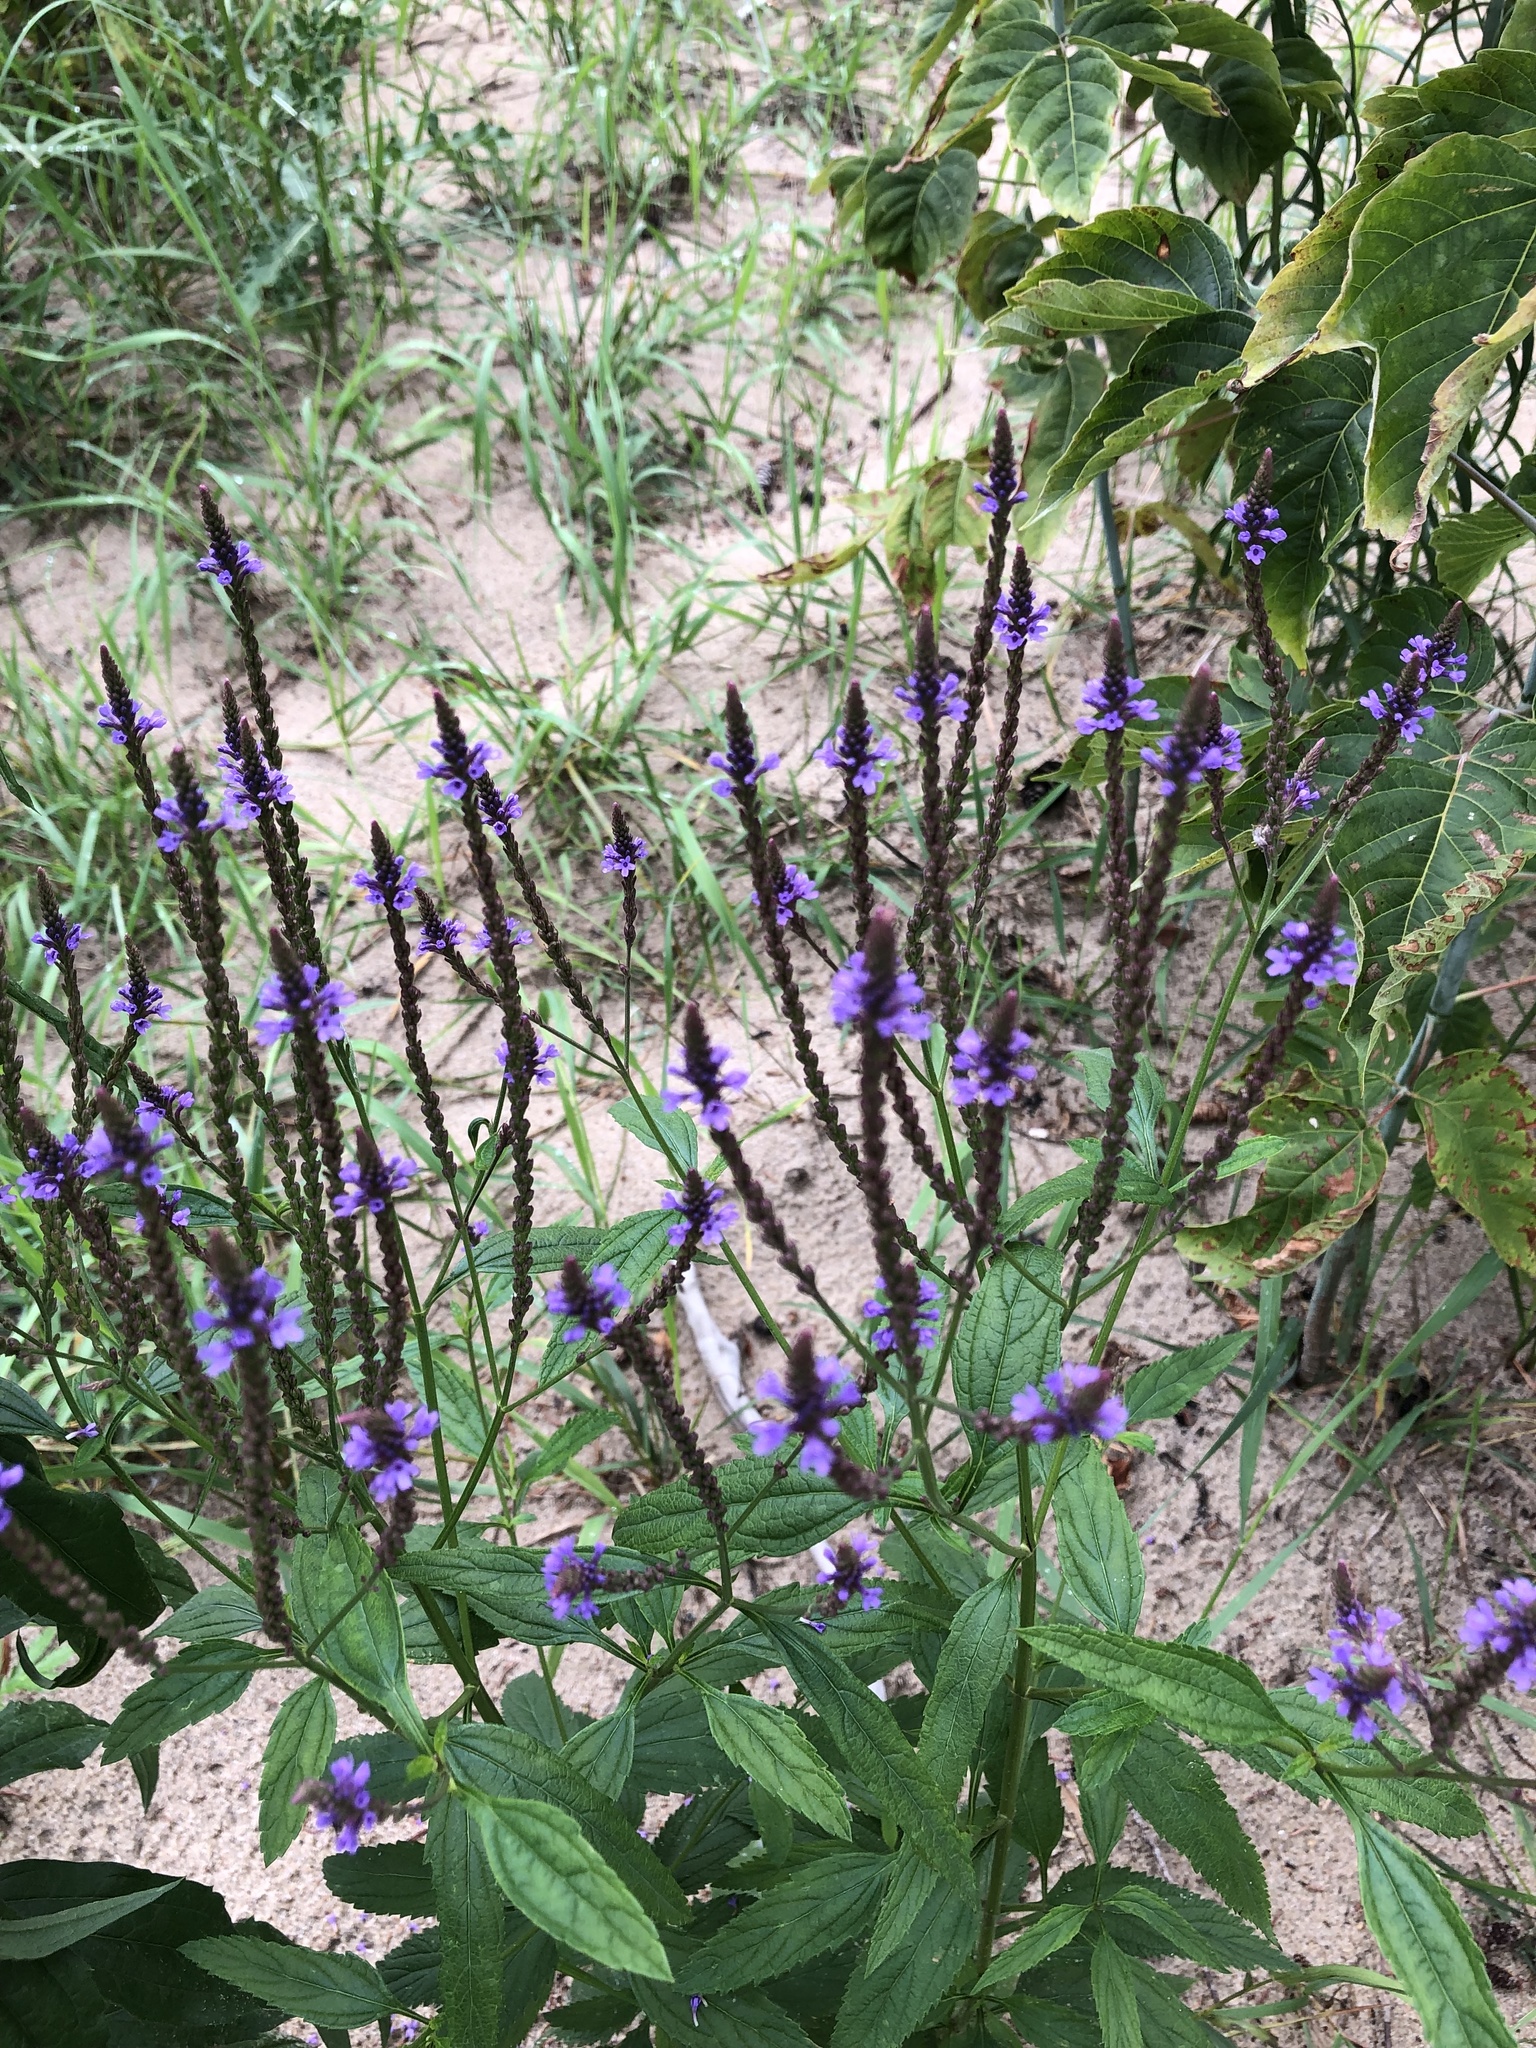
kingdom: Plantae
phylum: Tracheophyta
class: Magnoliopsida
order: Lamiales
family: Verbenaceae
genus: Verbena
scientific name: Verbena hastata
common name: American blue vervain
